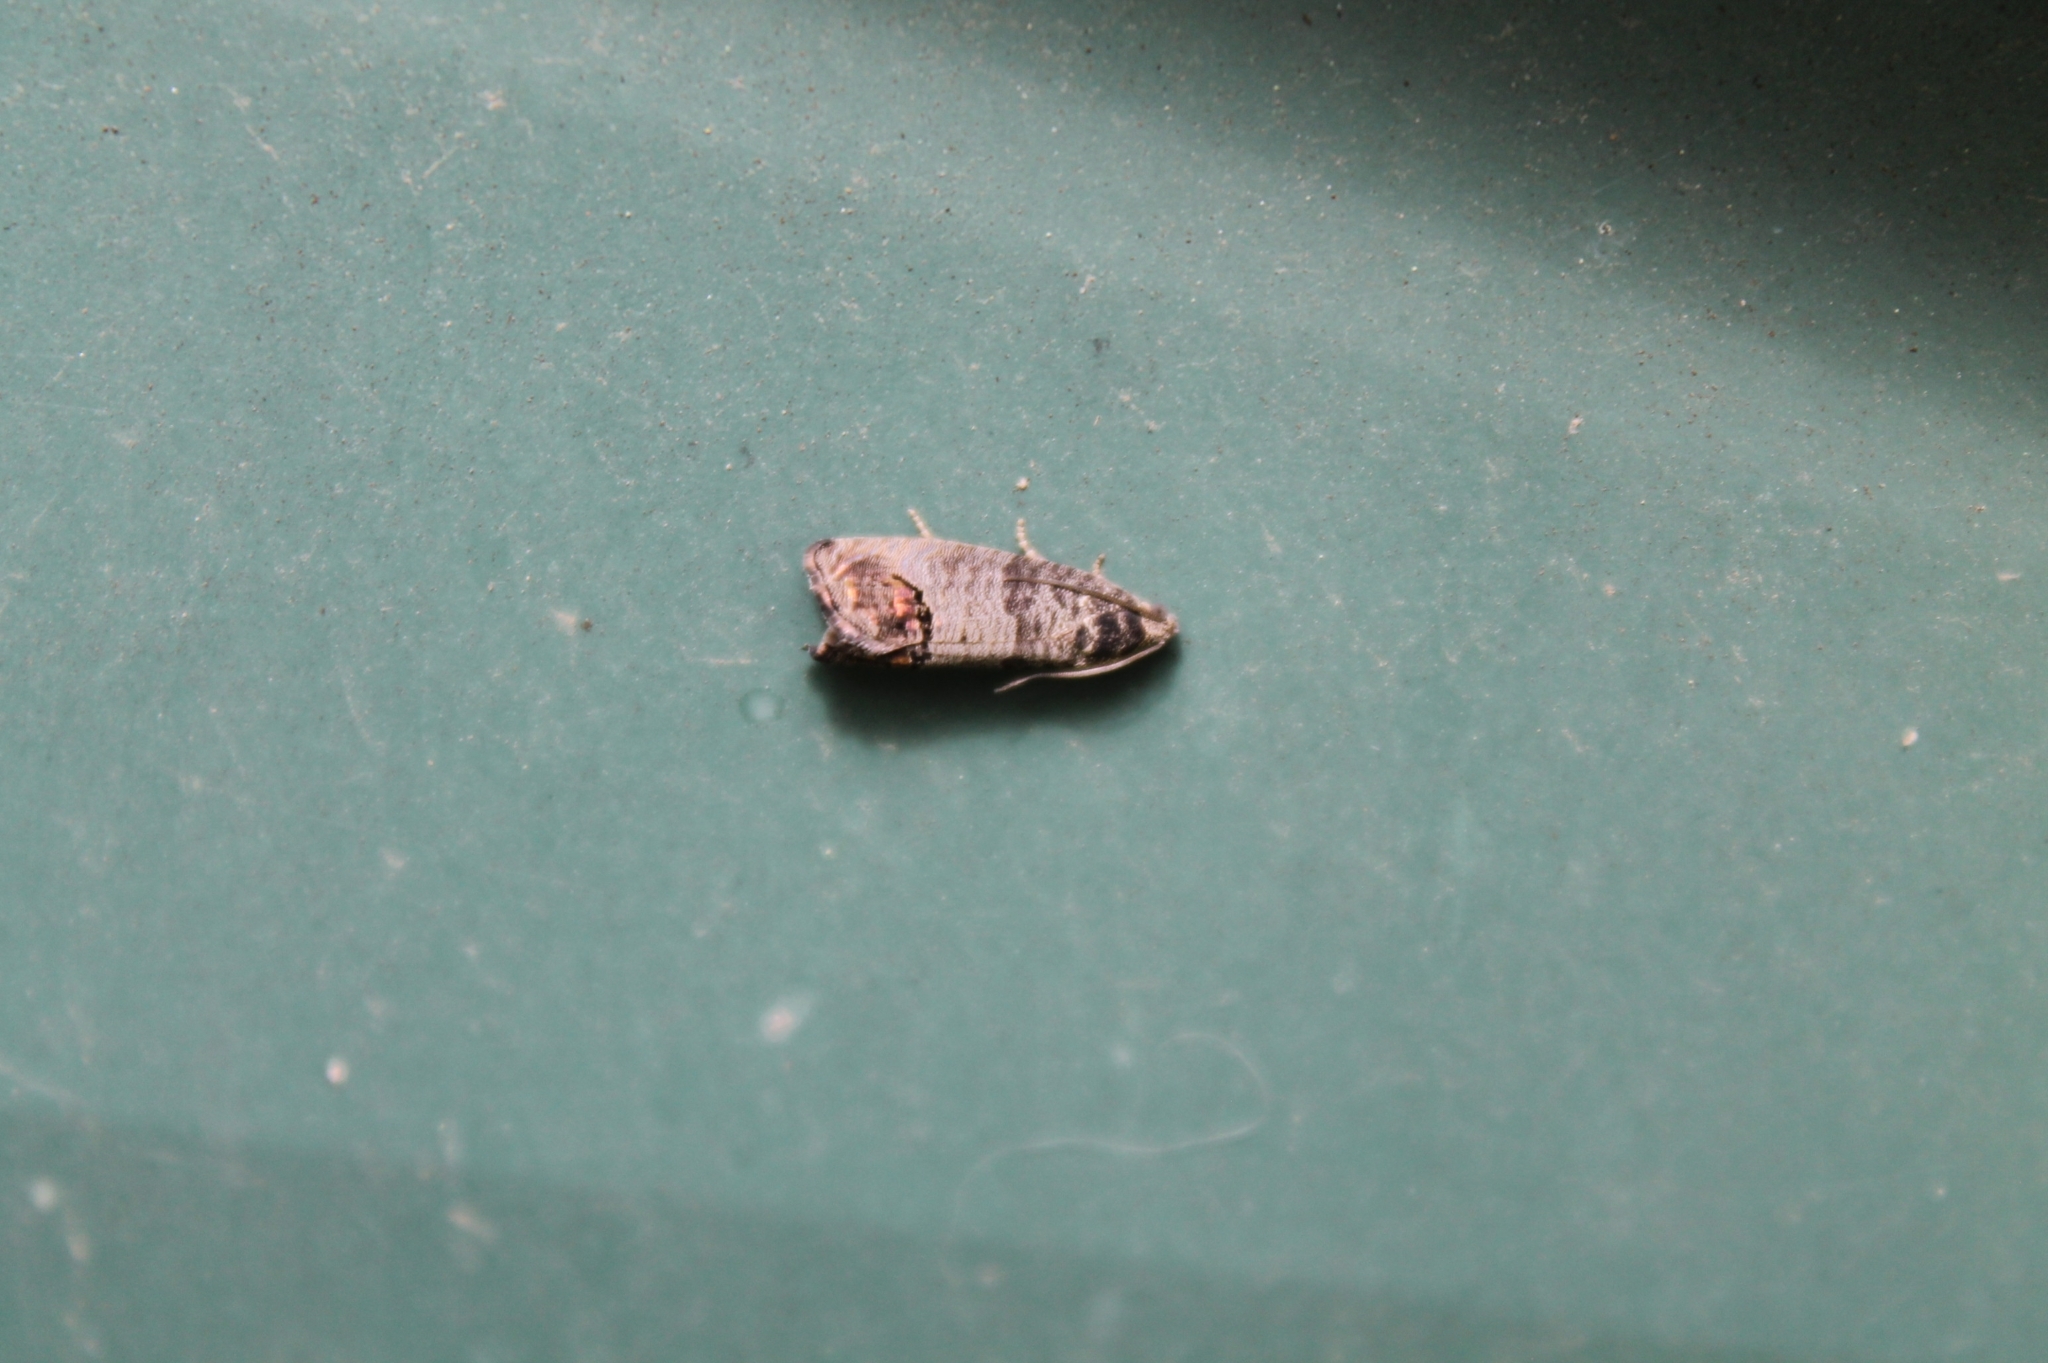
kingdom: Animalia
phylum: Arthropoda
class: Insecta
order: Lepidoptera
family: Tortricidae
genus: Cydia
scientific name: Cydia pomonella
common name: Codling moth
